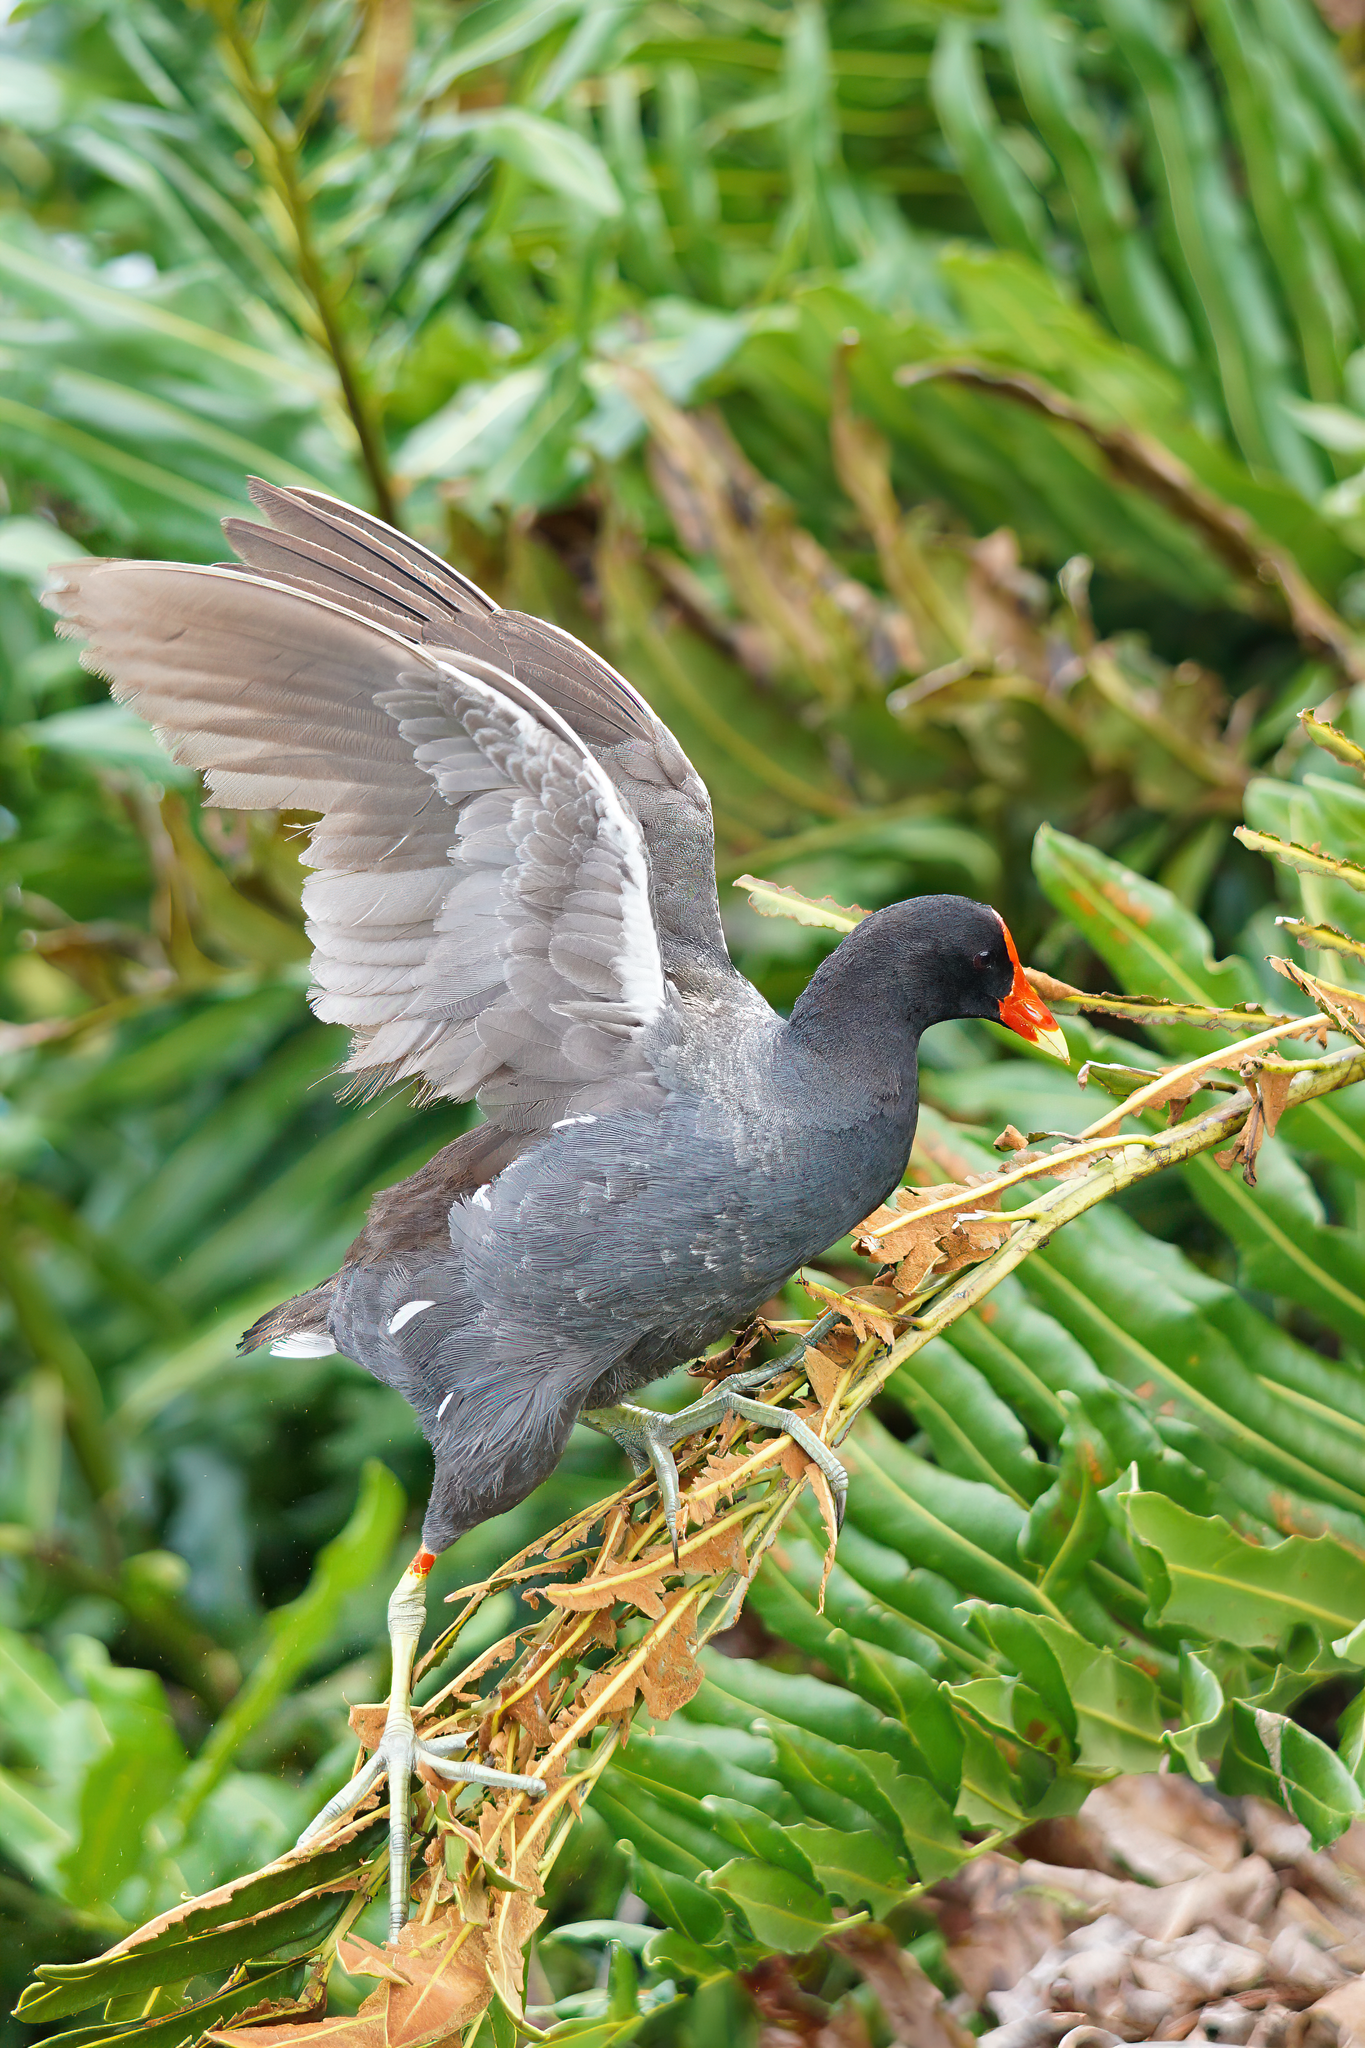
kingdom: Animalia
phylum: Chordata
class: Aves
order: Gruiformes
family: Rallidae
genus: Gallinula
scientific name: Gallinula chloropus
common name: Common moorhen
